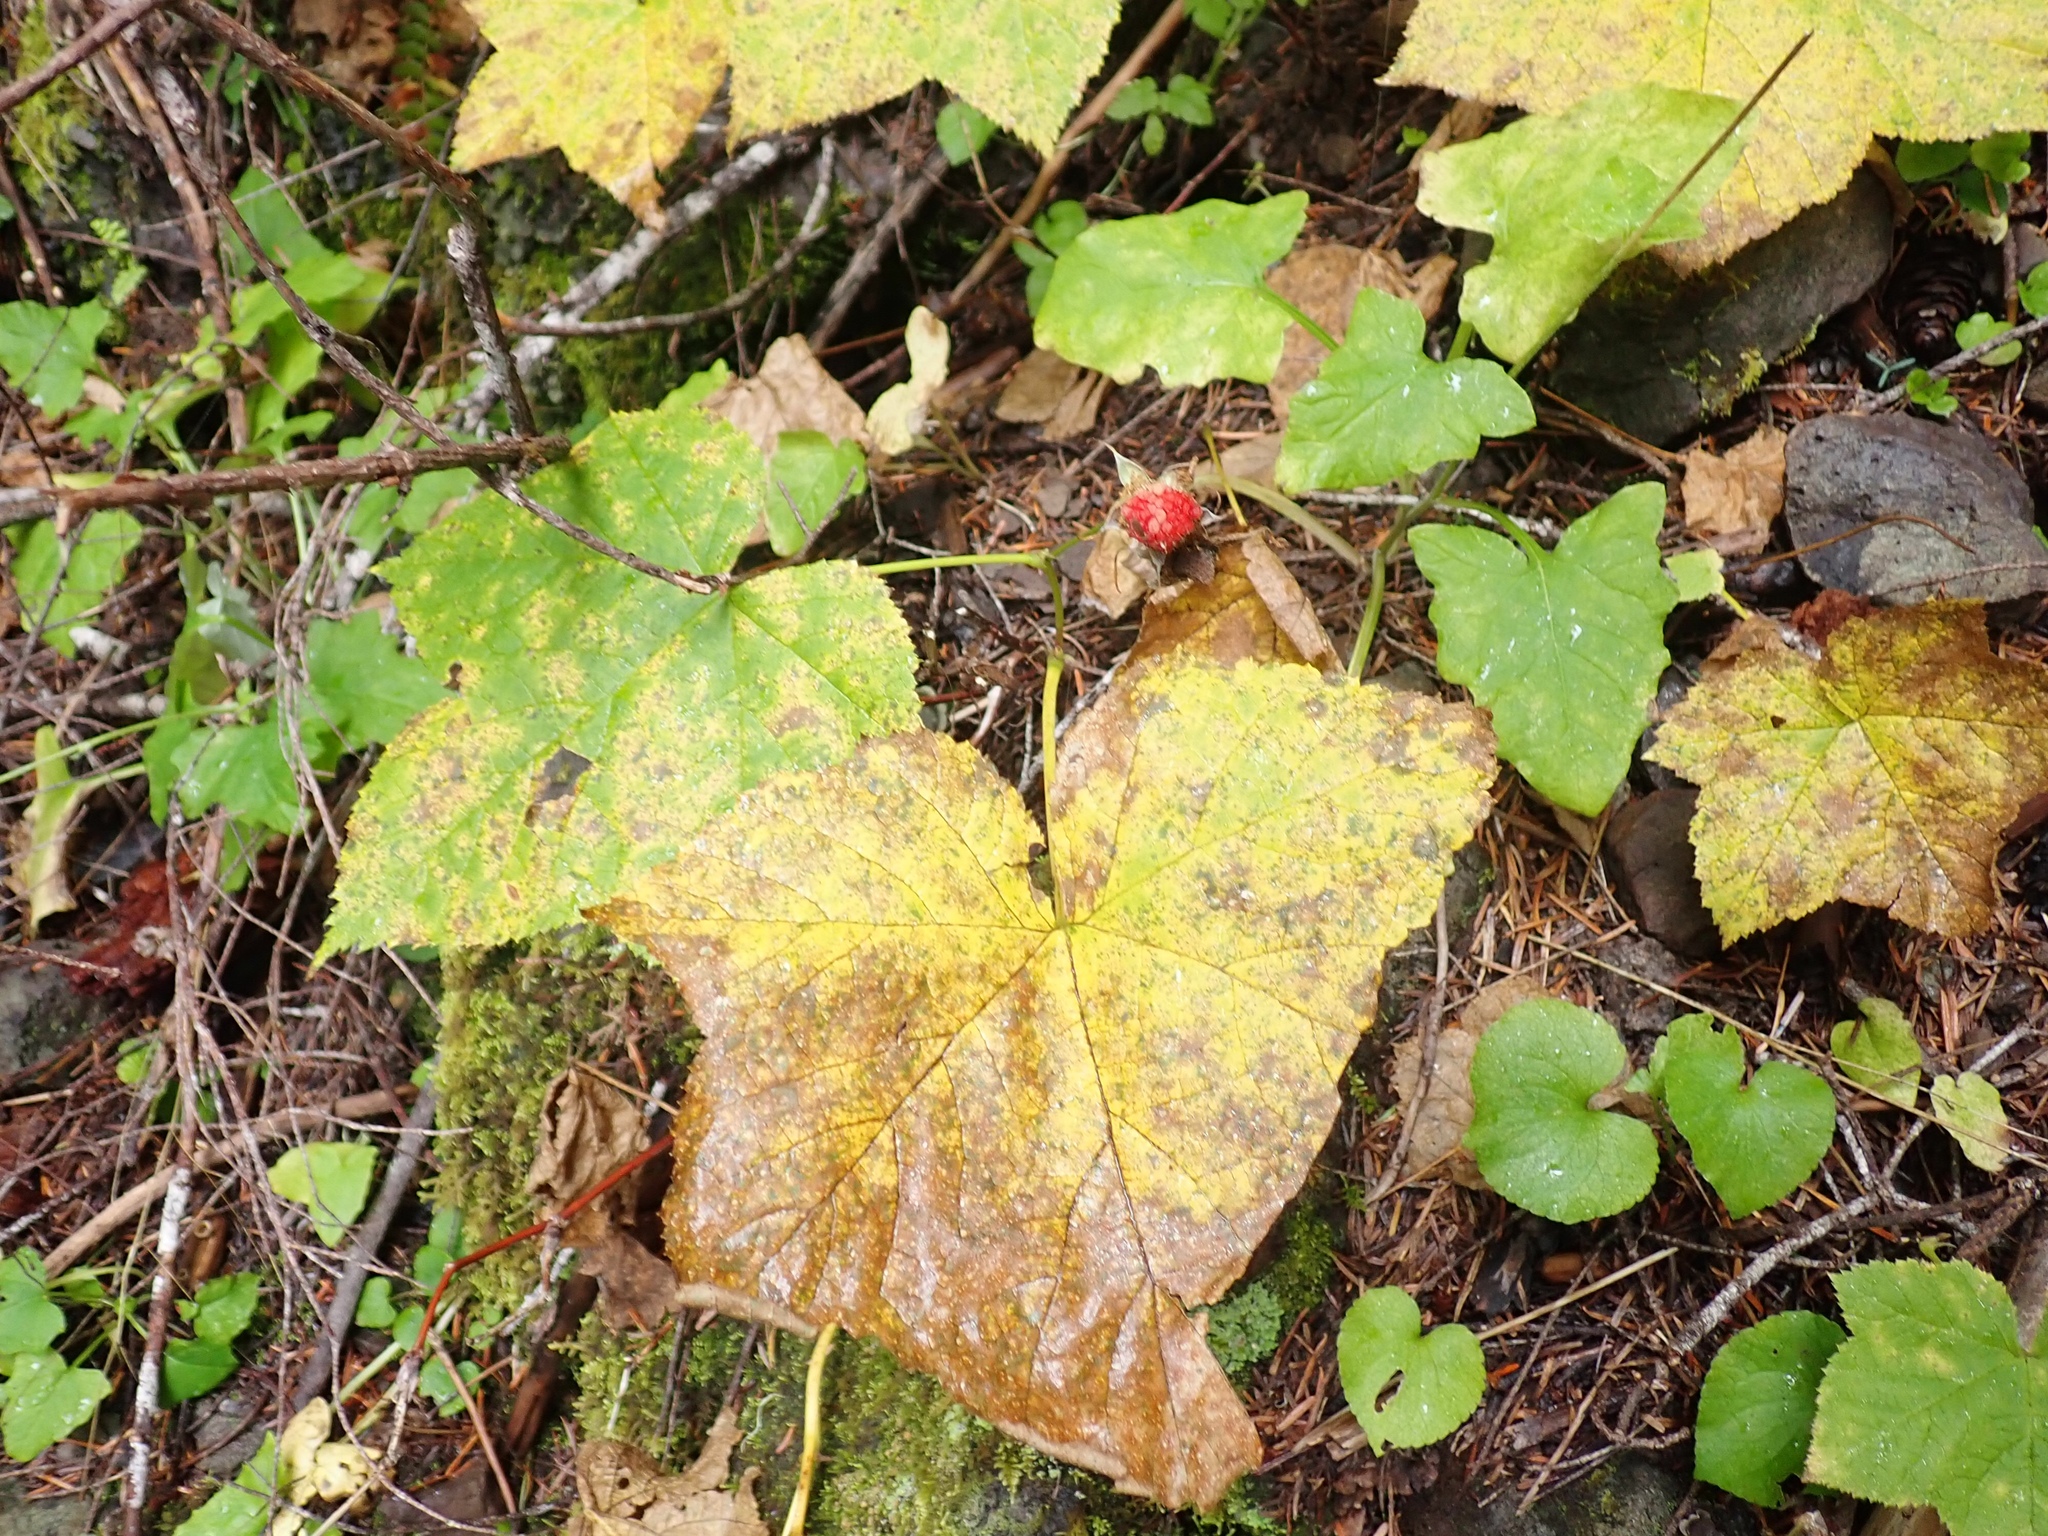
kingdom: Plantae
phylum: Tracheophyta
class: Magnoliopsida
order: Rosales
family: Rosaceae
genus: Rubus
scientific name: Rubus parviflorus
